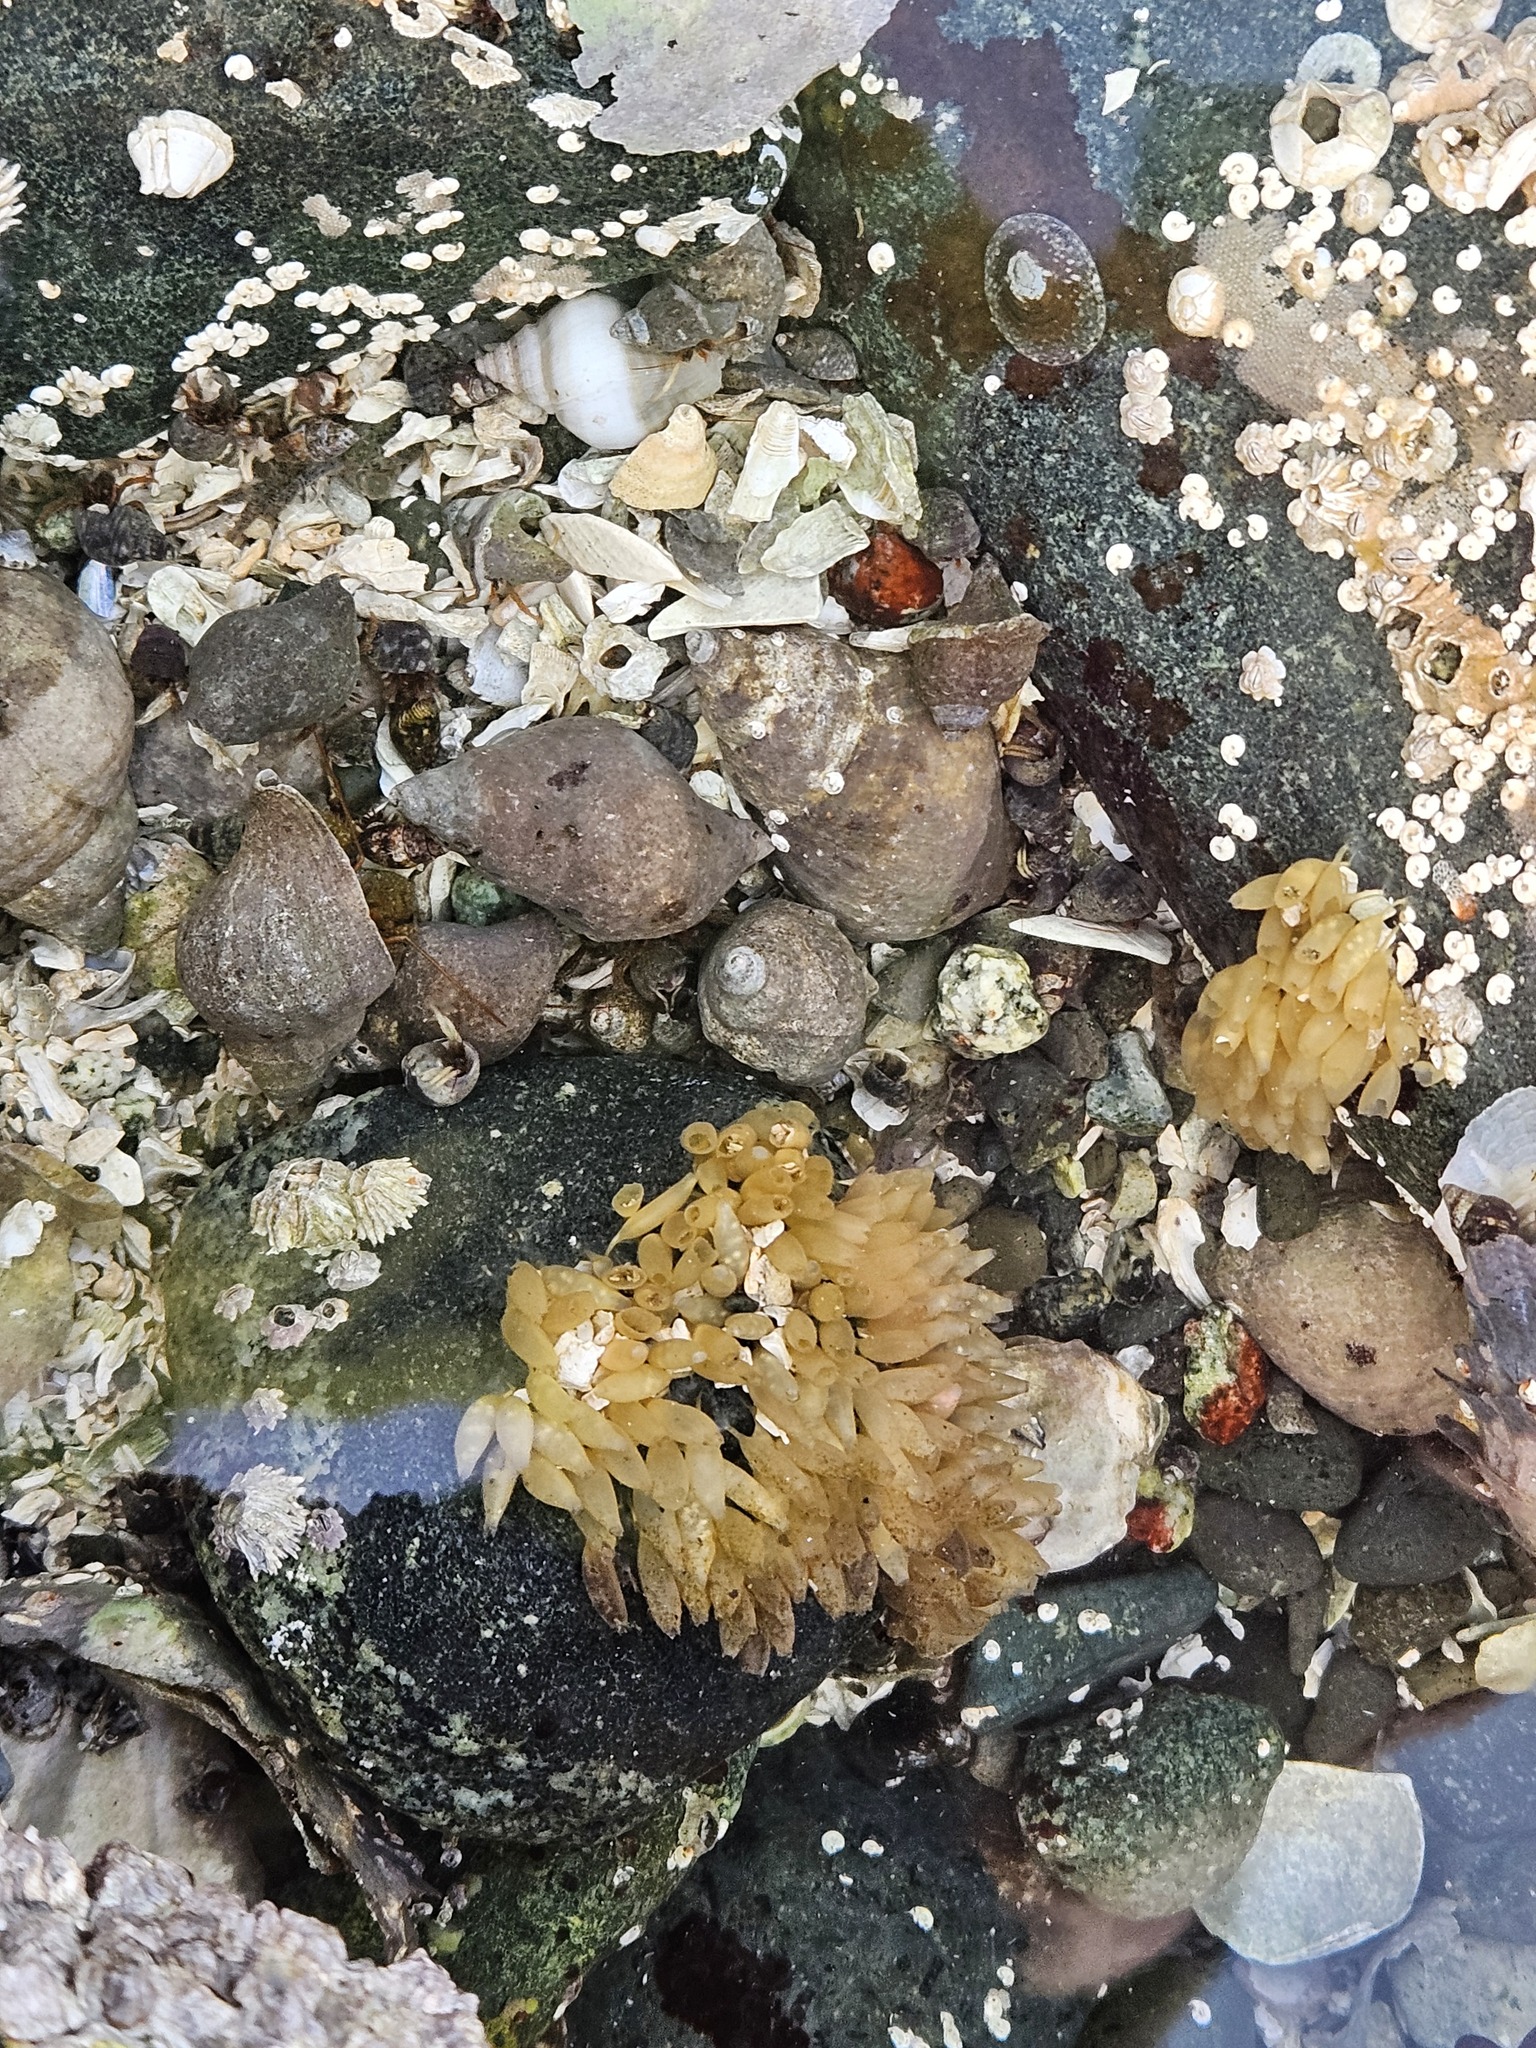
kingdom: Animalia
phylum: Mollusca
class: Gastropoda
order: Neogastropoda
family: Muricidae
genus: Nucella
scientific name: Nucella lamellosa
